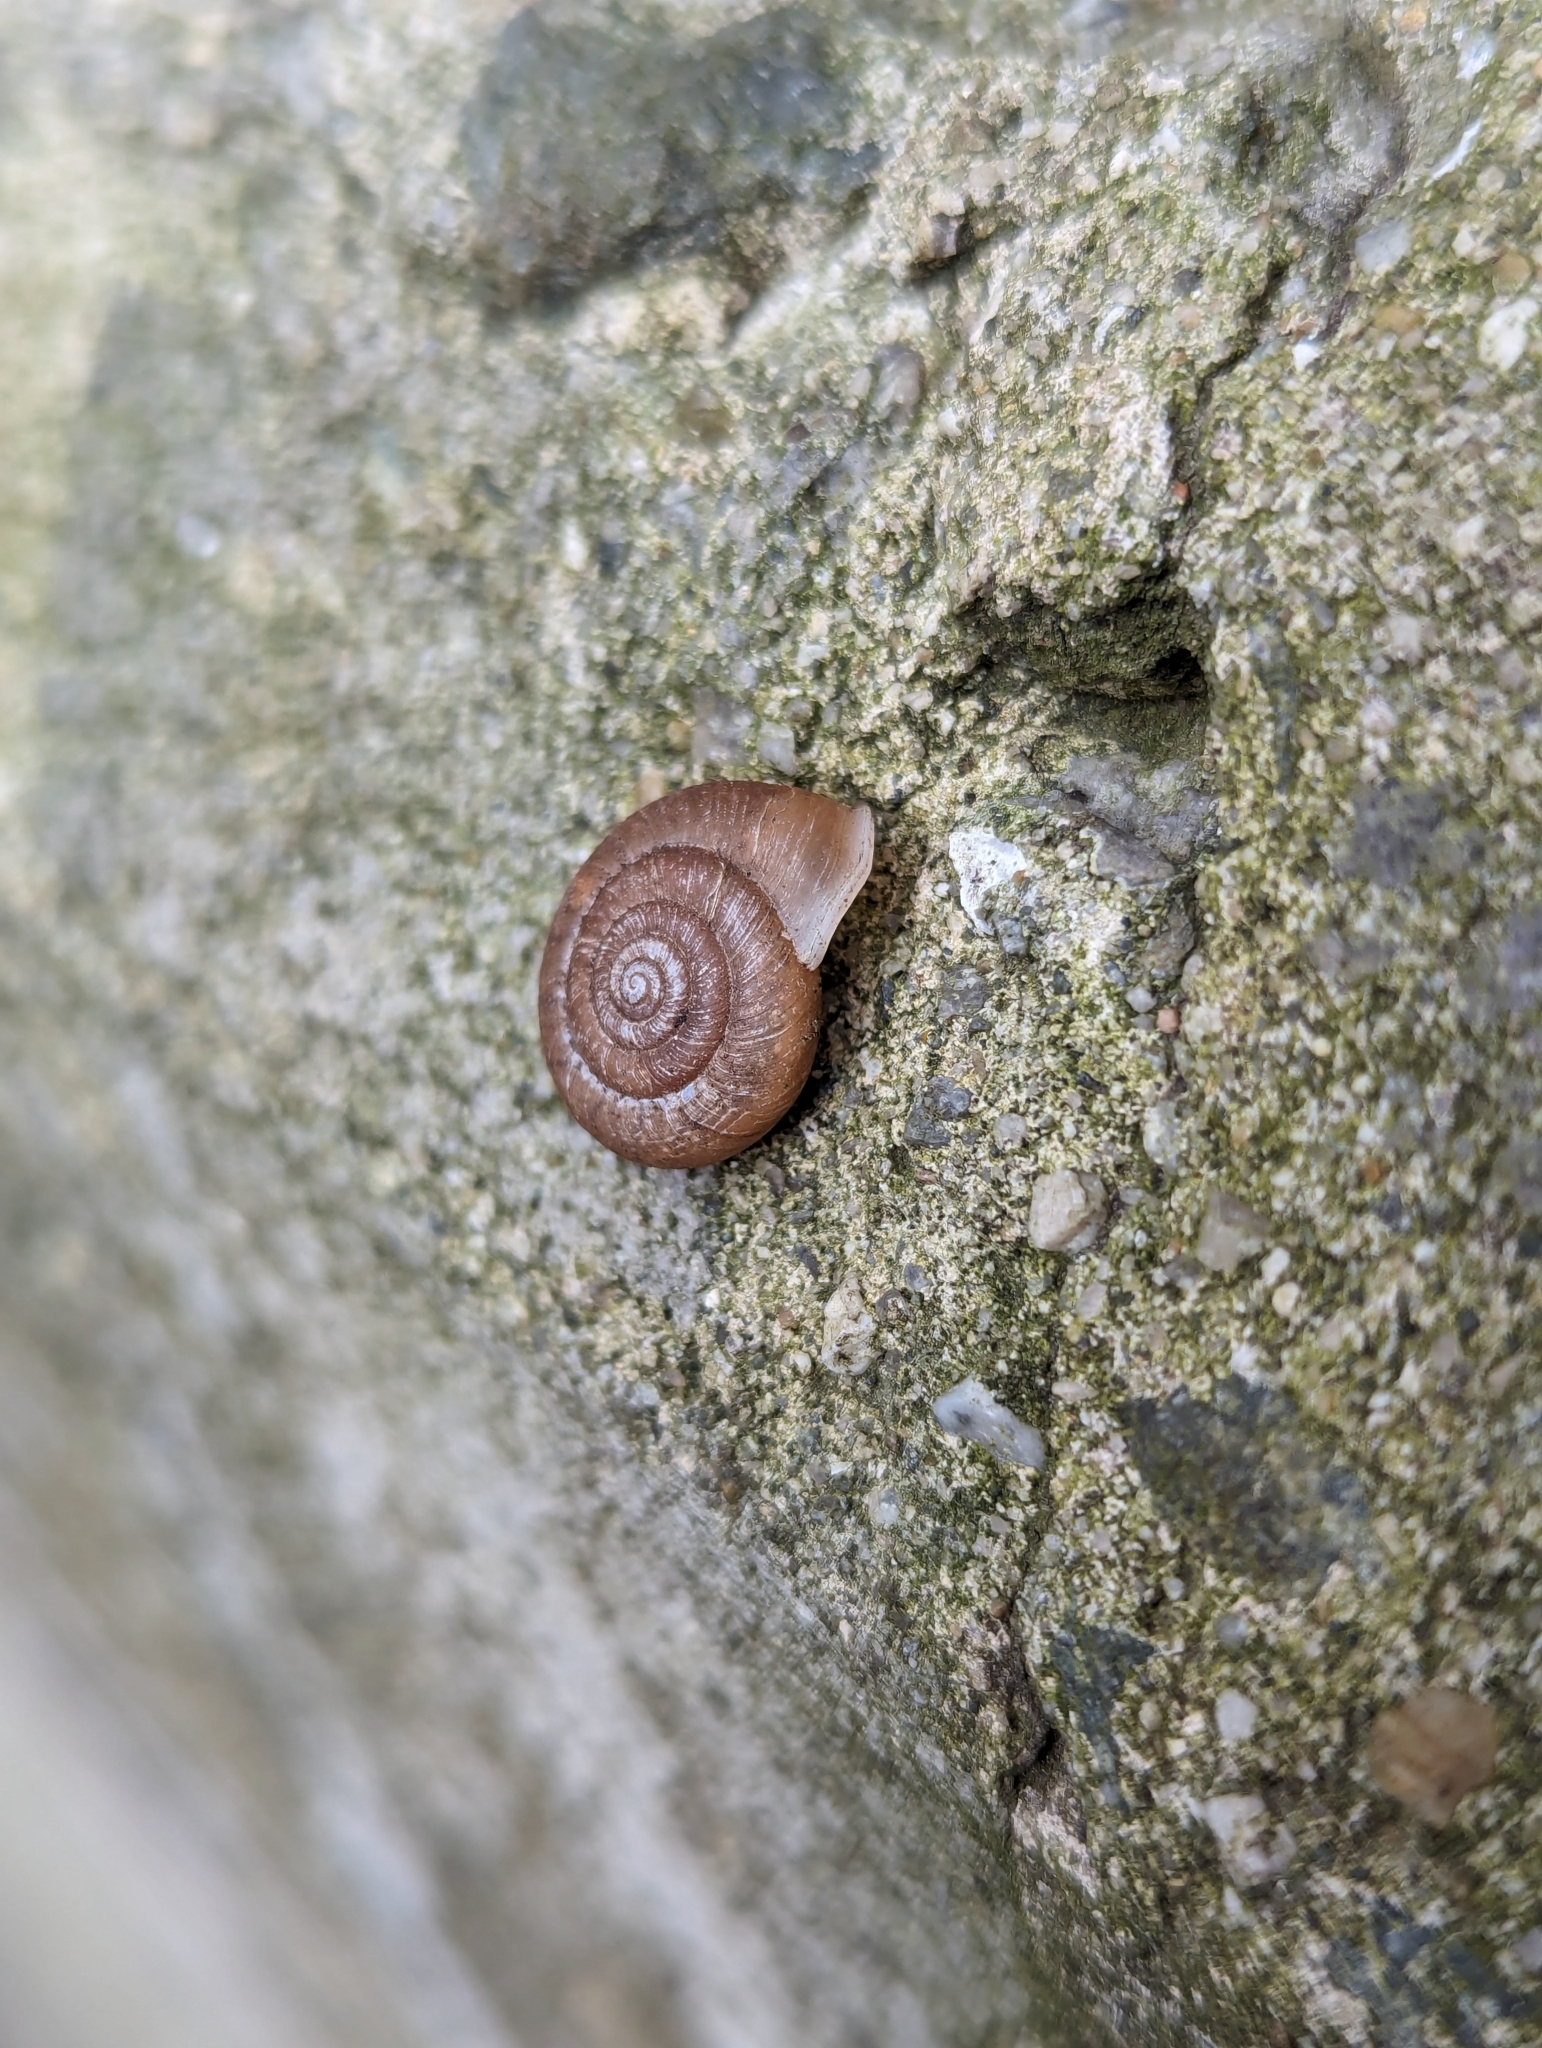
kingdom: Animalia
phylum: Mollusca
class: Gastropoda
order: Stylommatophora
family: Camaenidae
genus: Aegista
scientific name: Aegista kobensis
